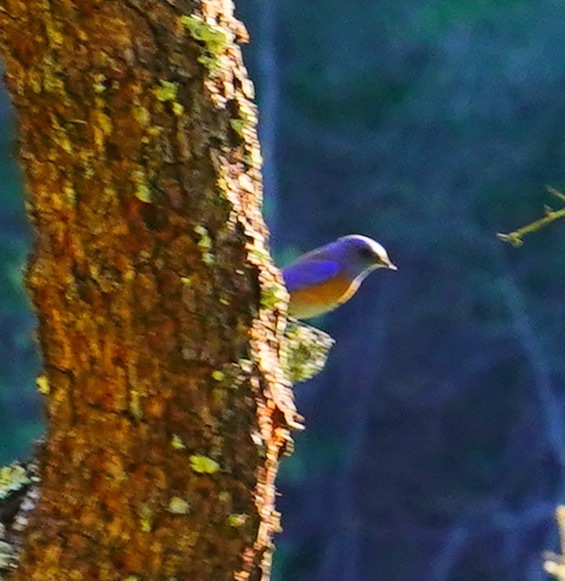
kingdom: Animalia
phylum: Chordata
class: Aves
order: Passeriformes
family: Turdidae
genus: Sialia
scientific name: Sialia mexicana
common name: Western bluebird
